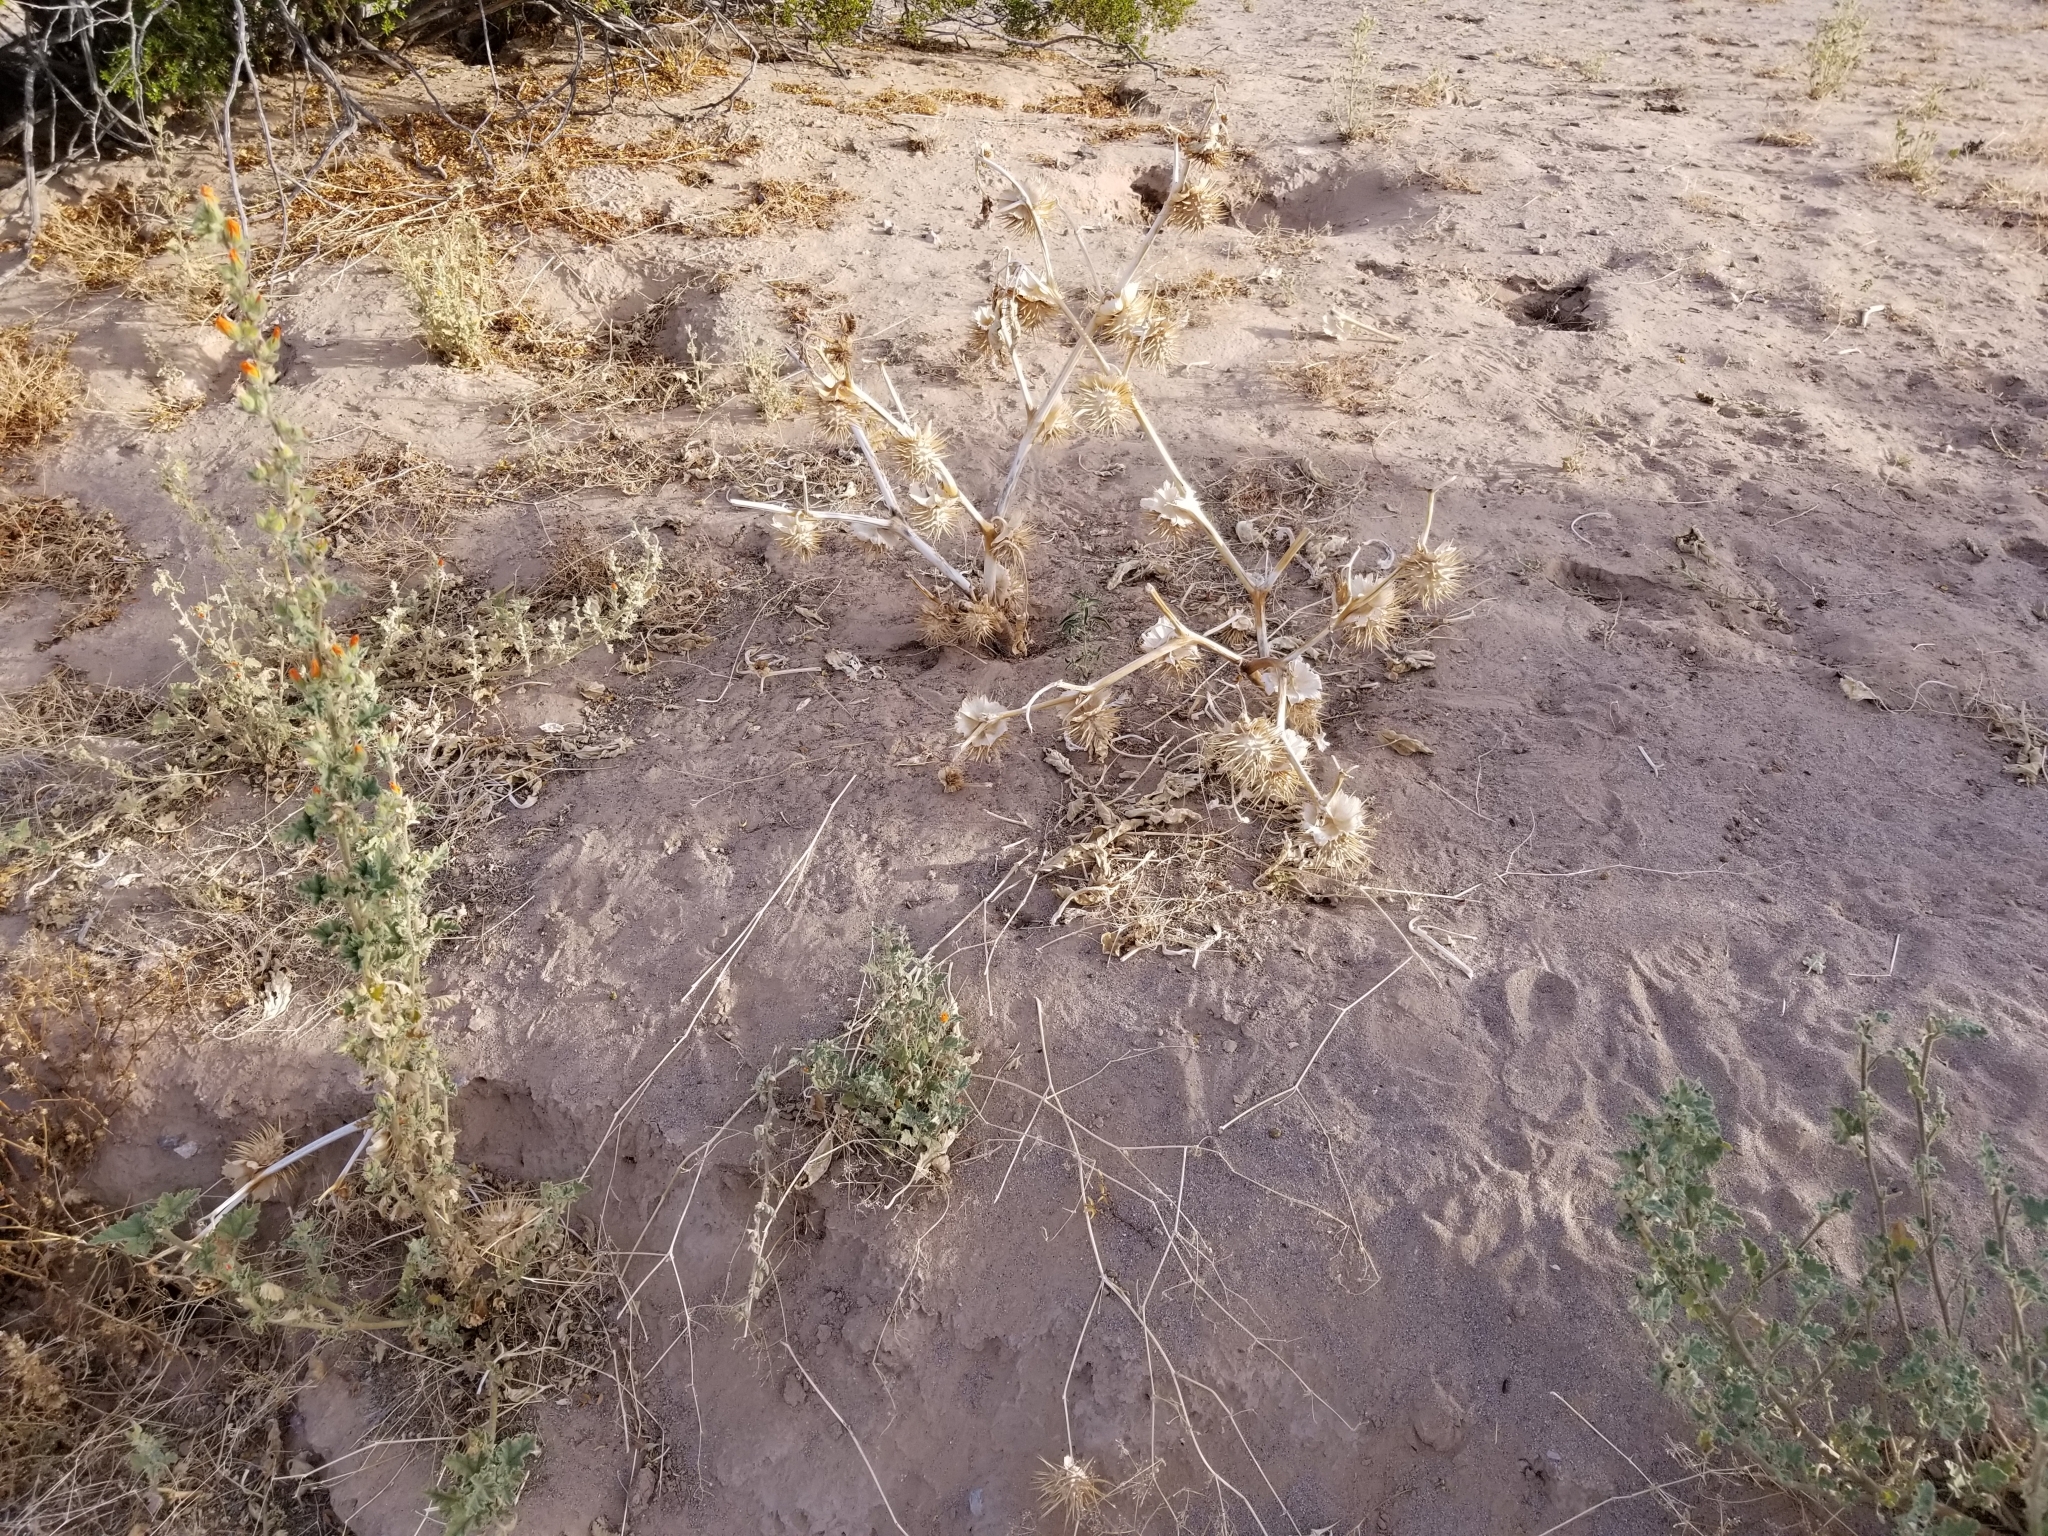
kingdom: Plantae
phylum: Tracheophyta
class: Magnoliopsida
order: Solanales
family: Solanaceae
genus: Datura
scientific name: Datura discolor
